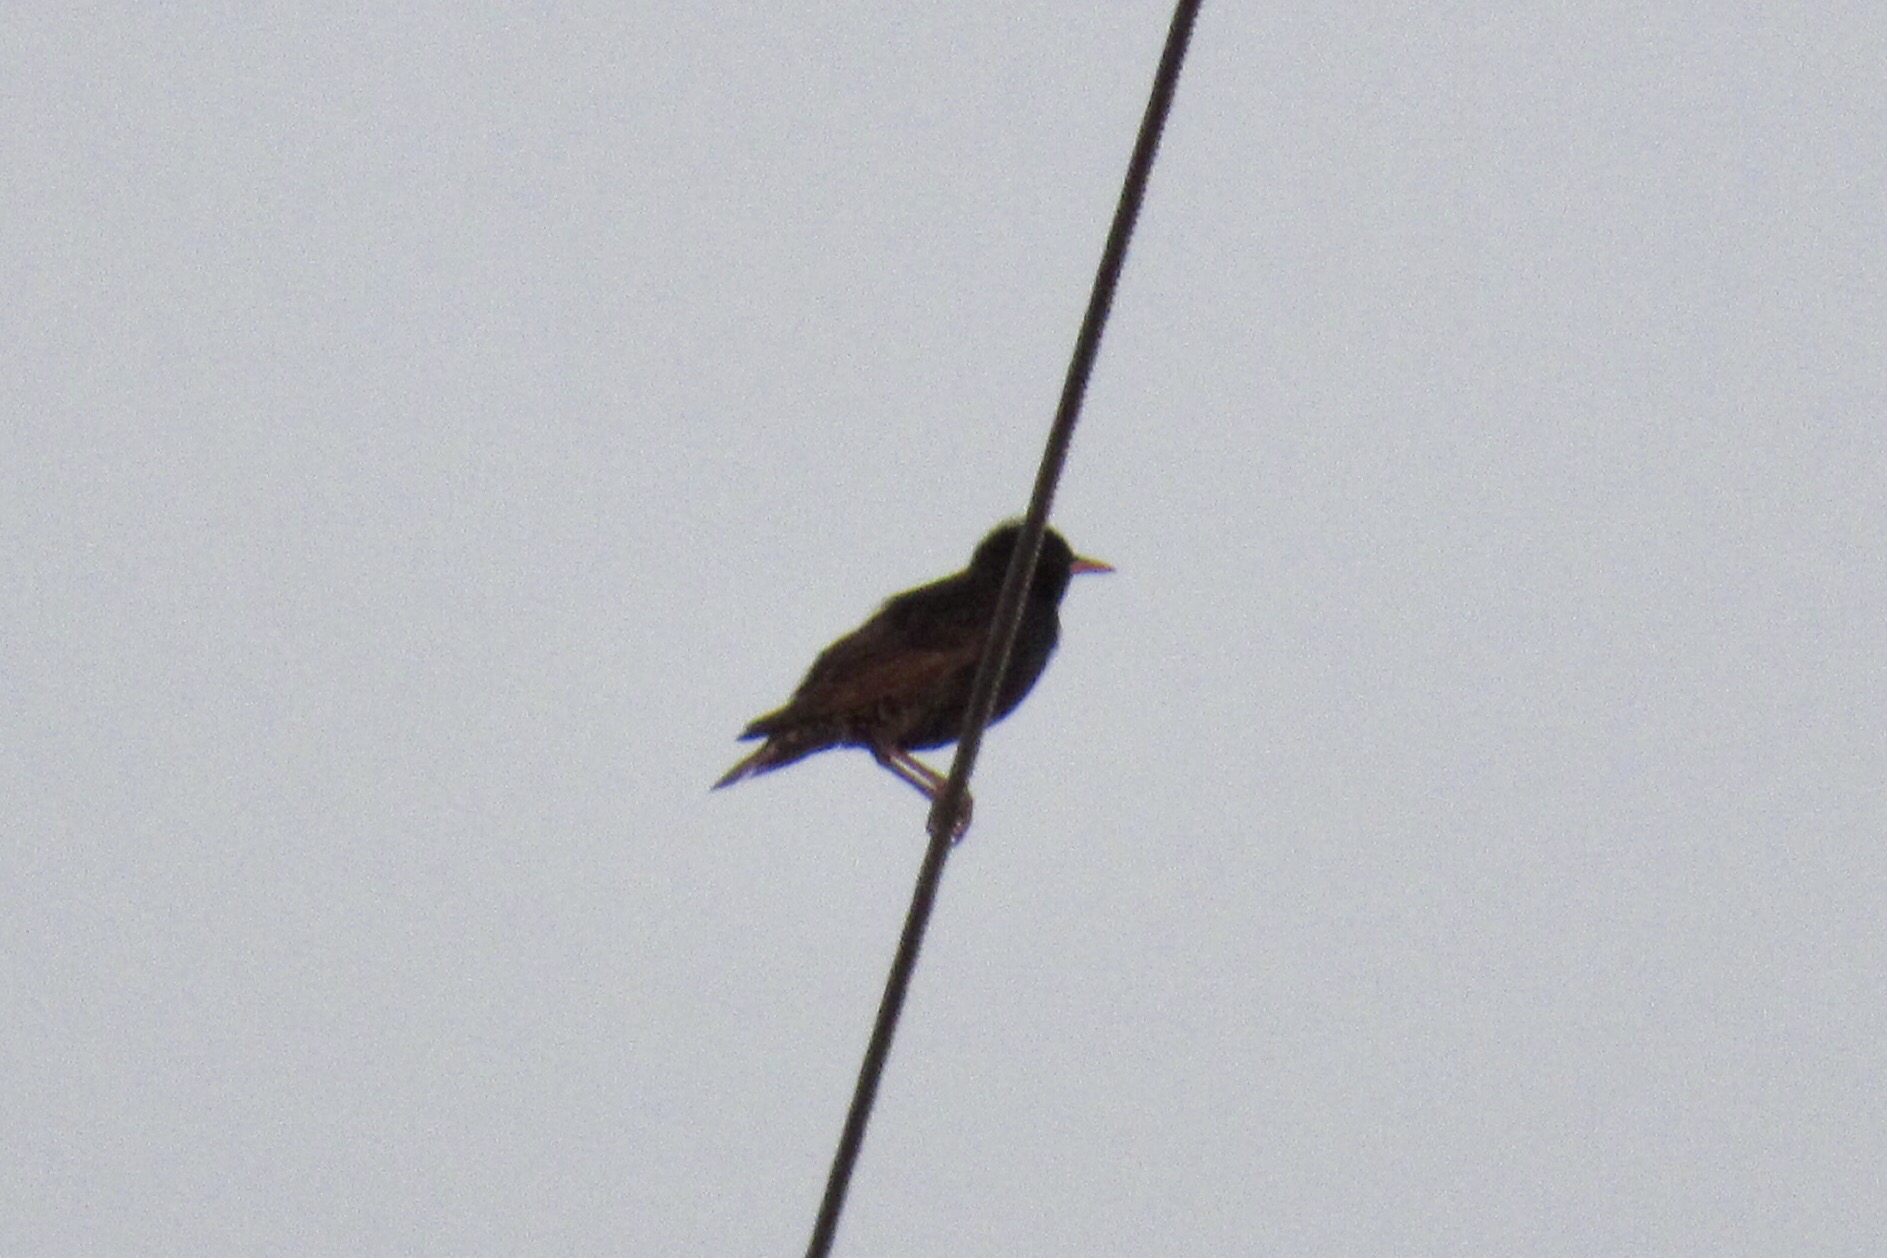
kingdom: Animalia
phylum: Chordata
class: Aves
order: Passeriformes
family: Sturnidae
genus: Sturnus
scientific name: Sturnus vulgaris
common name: Common starling
